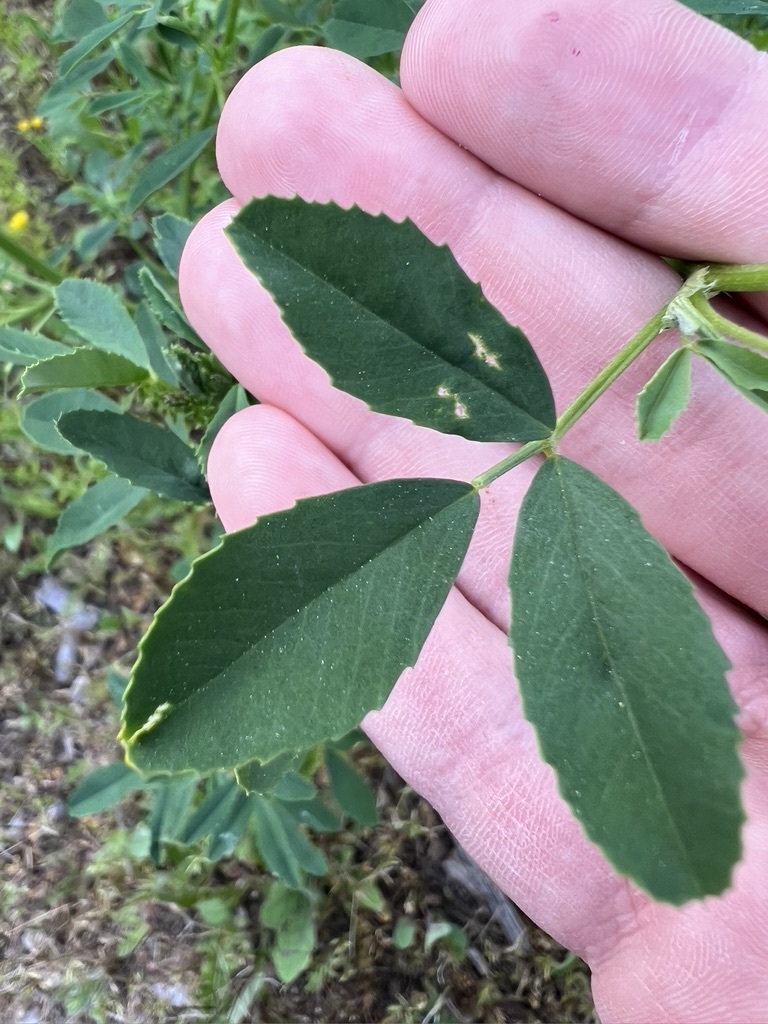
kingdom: Plantae
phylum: Tracheophyta
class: Magnoliopsida
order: Fabales
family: Fabaceae
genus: Melilotus
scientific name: Melilotus indicus
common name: Small melilot
